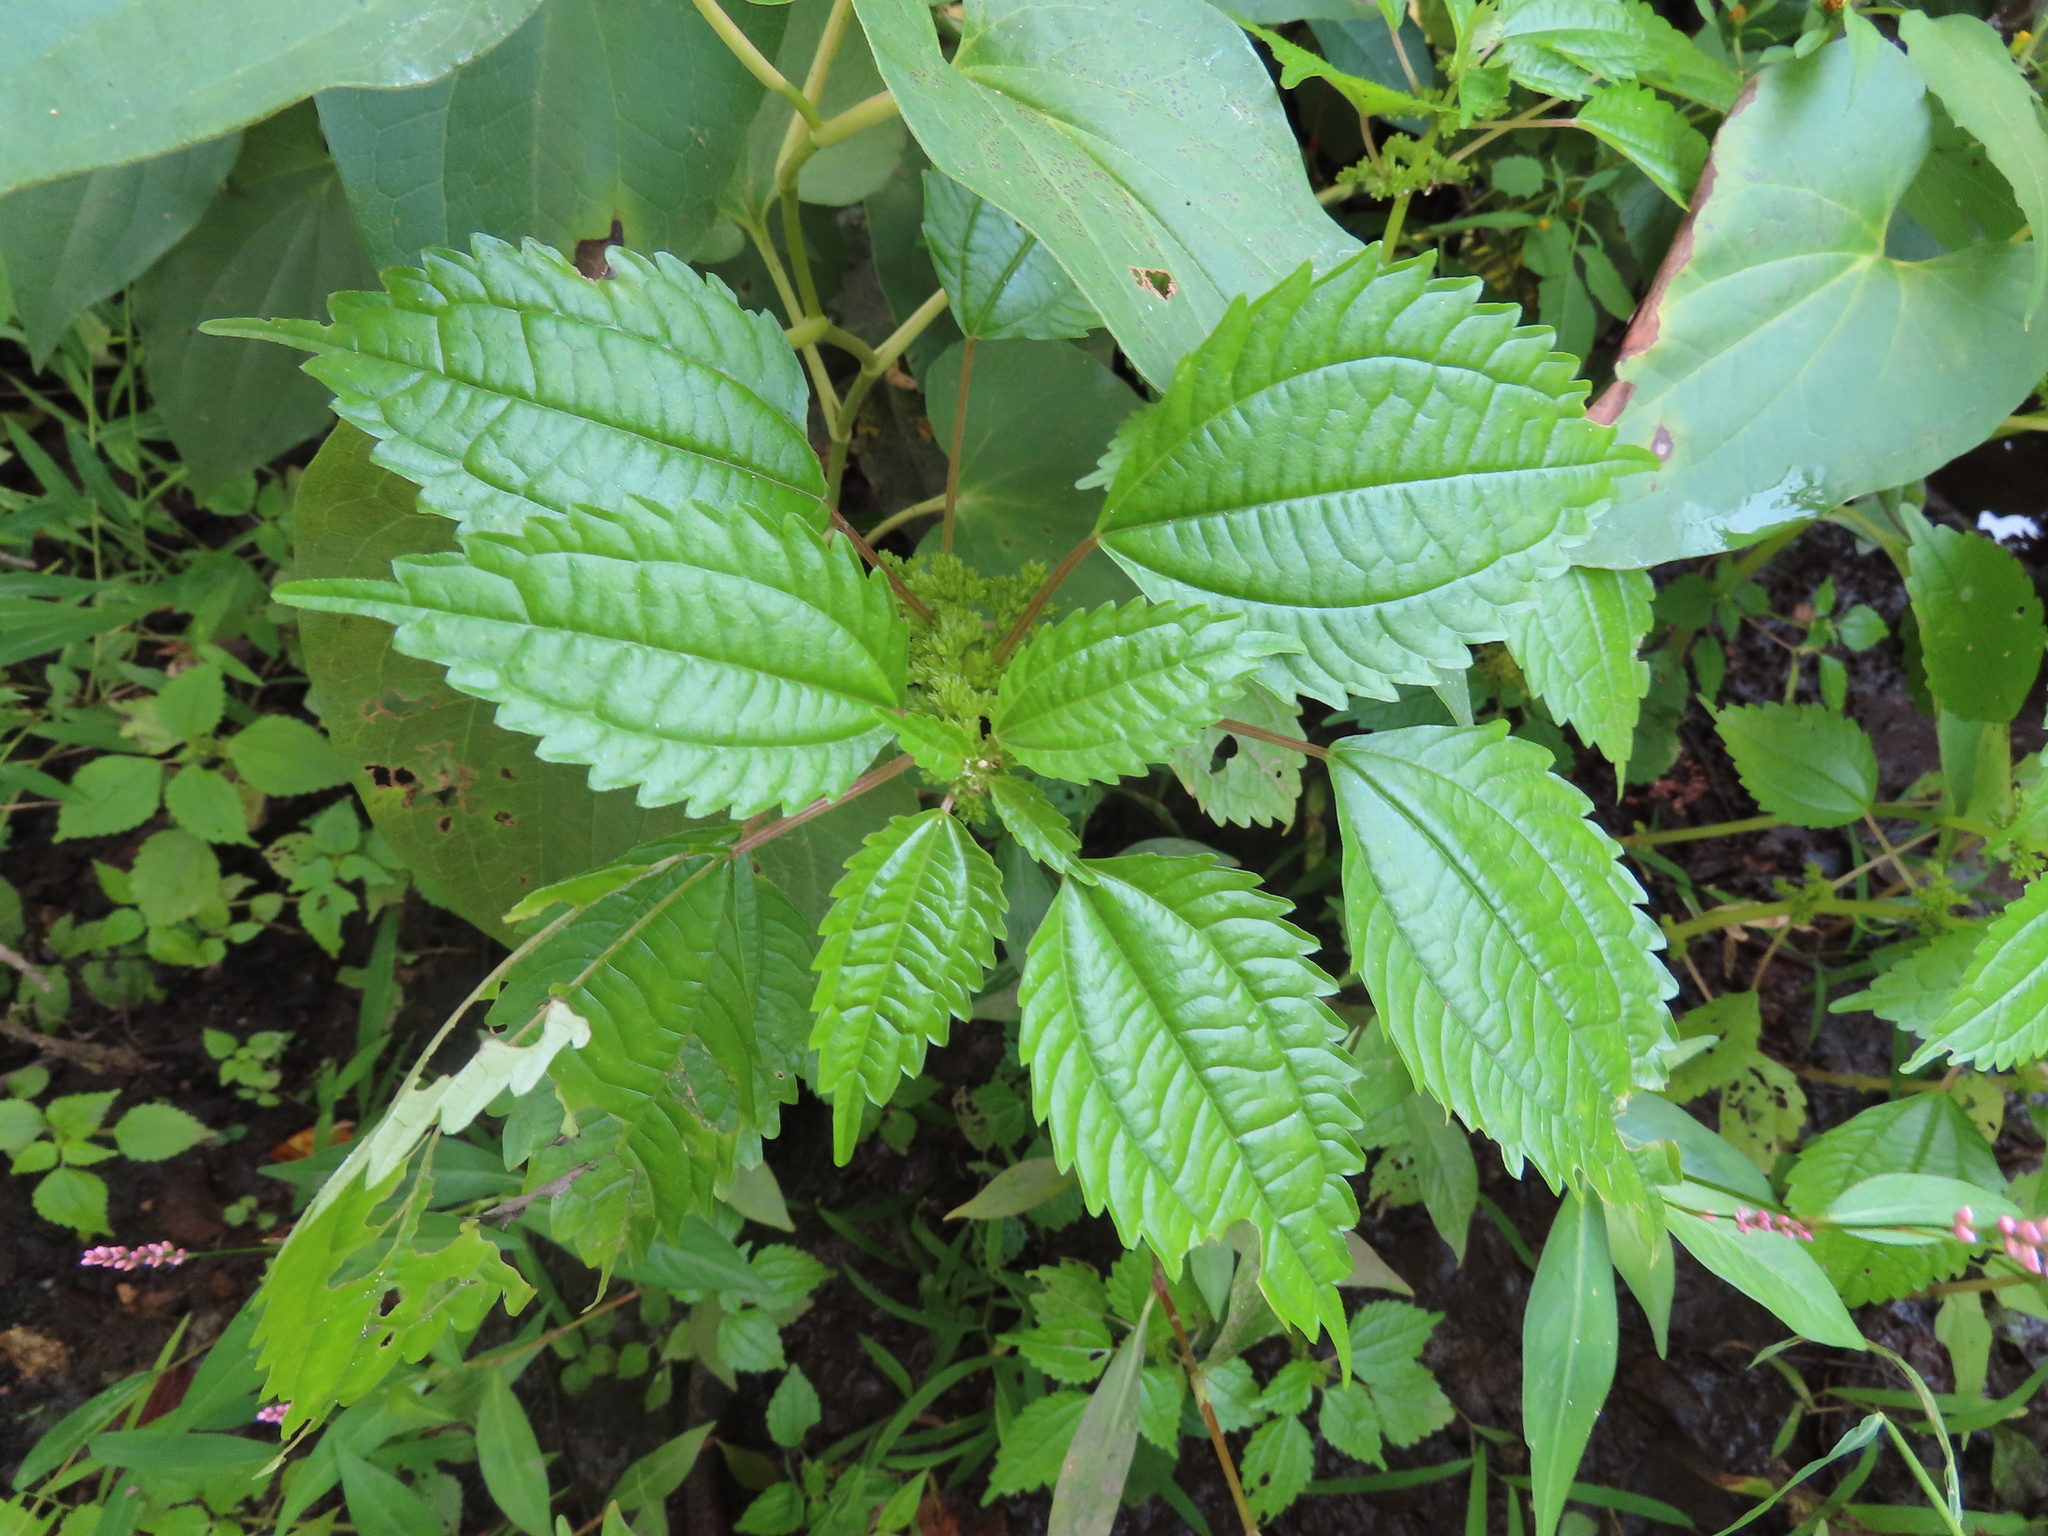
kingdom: Plantae
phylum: Tracheophyta
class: Magnoliopsida
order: Rosales
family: Urticaceae
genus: Pilea
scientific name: Pilea pumila
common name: Clearweed
